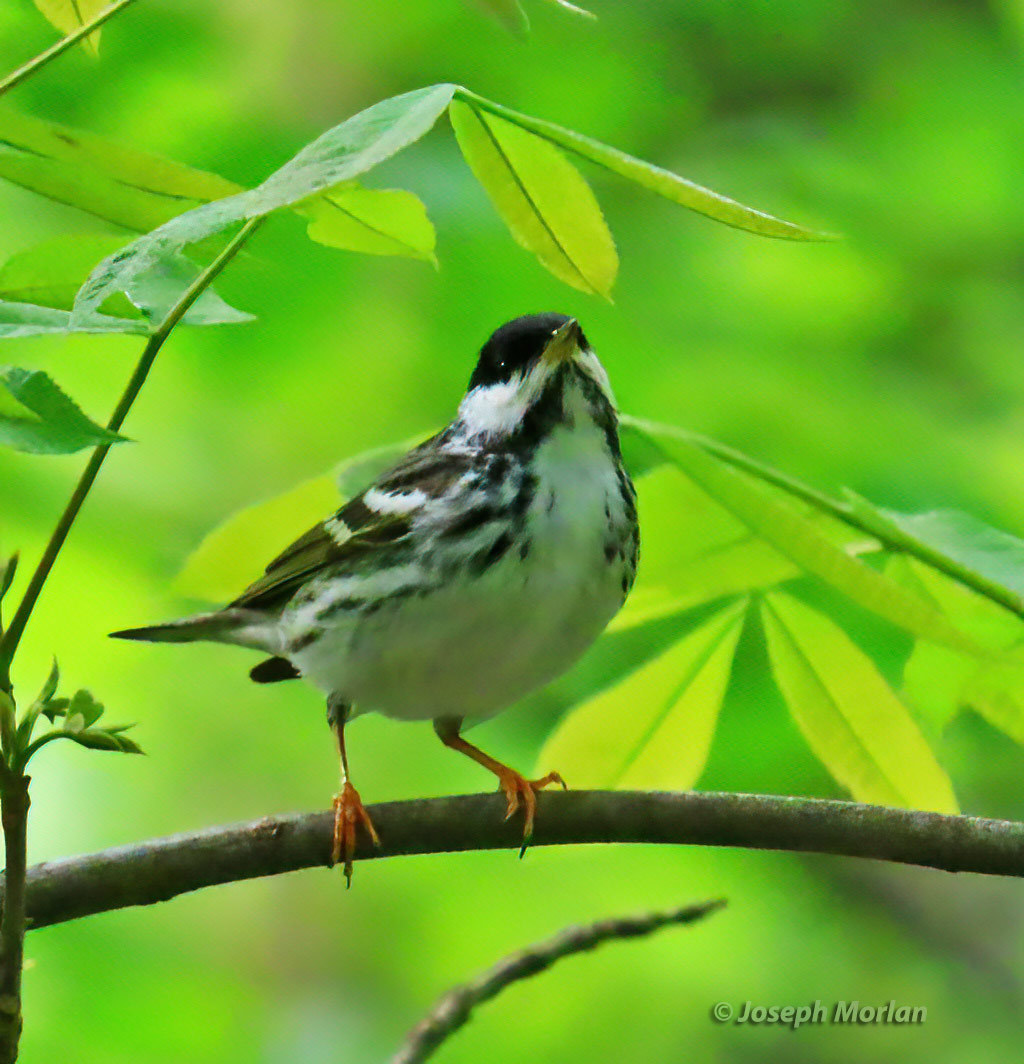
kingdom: Animalia
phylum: Chordata
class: Aves
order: Passeriformes
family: Parulidae
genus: Setophaga
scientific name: Setophaga striata
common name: Blackpoll warbler
